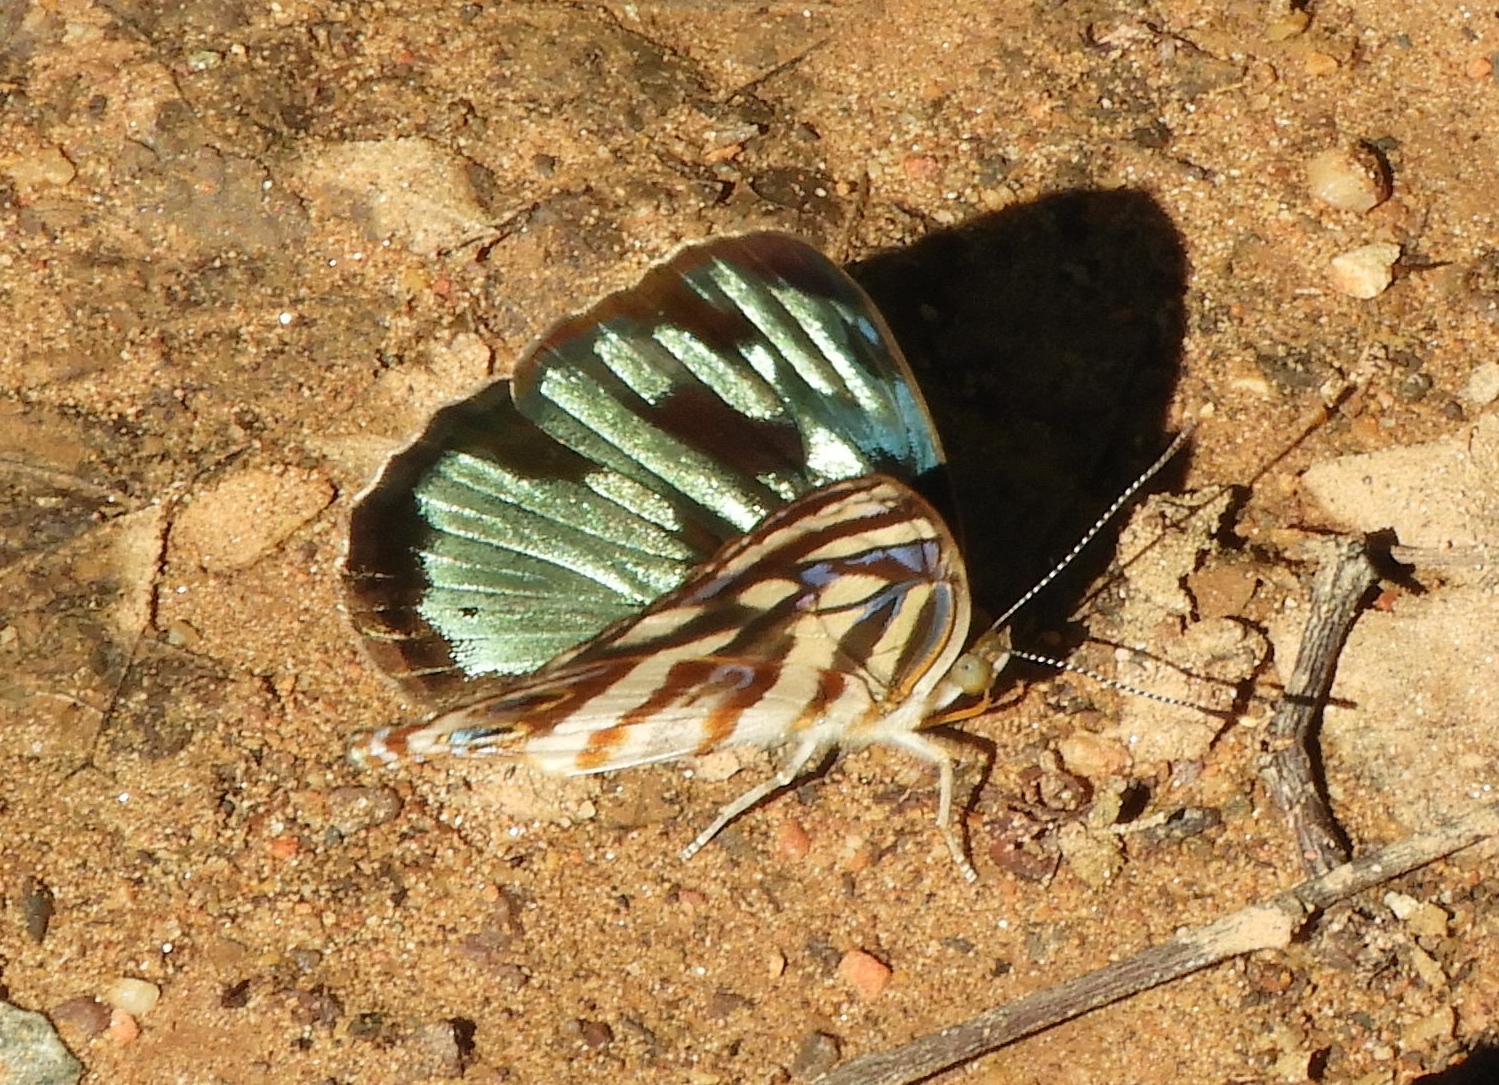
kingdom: Animalia
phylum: Arthropoda
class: Insecta
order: Lepidoptera
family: Nymphalidae
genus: Dynamine
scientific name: Dynamine mylitta
